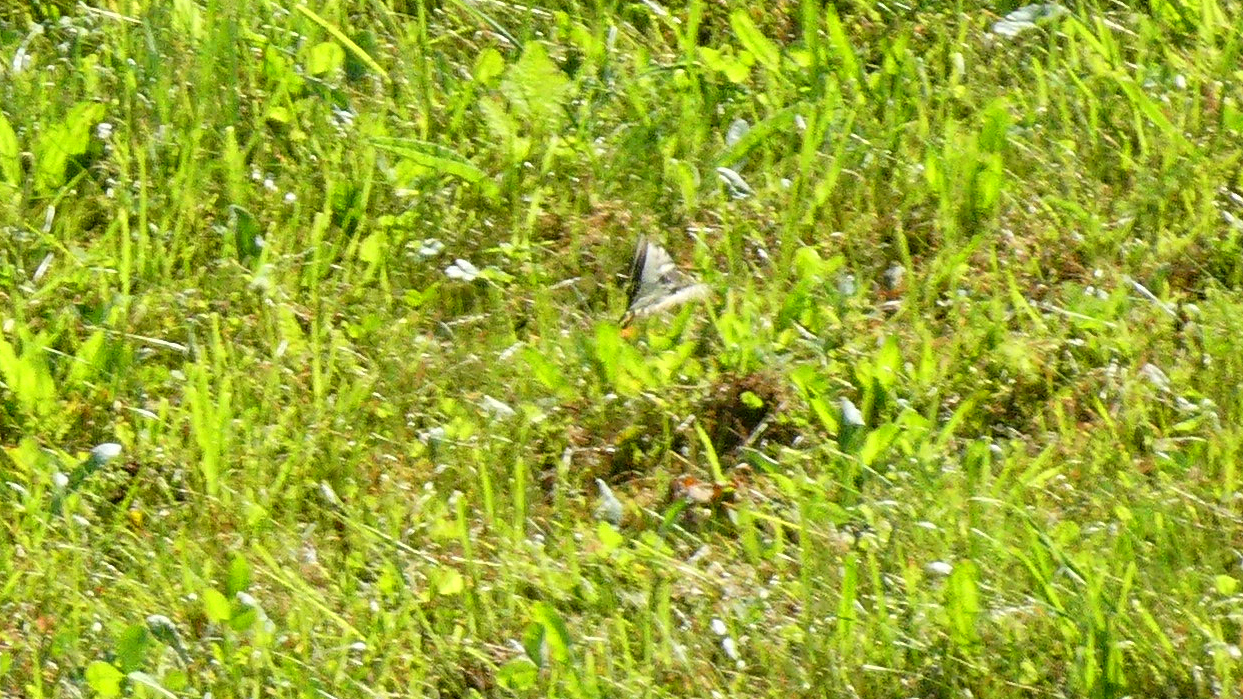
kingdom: Animalia
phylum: Arthropoda
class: Insecta
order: Lepidoptera
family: Papilionidae
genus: Papilio
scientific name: Papilio machaon
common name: Swallowtail
